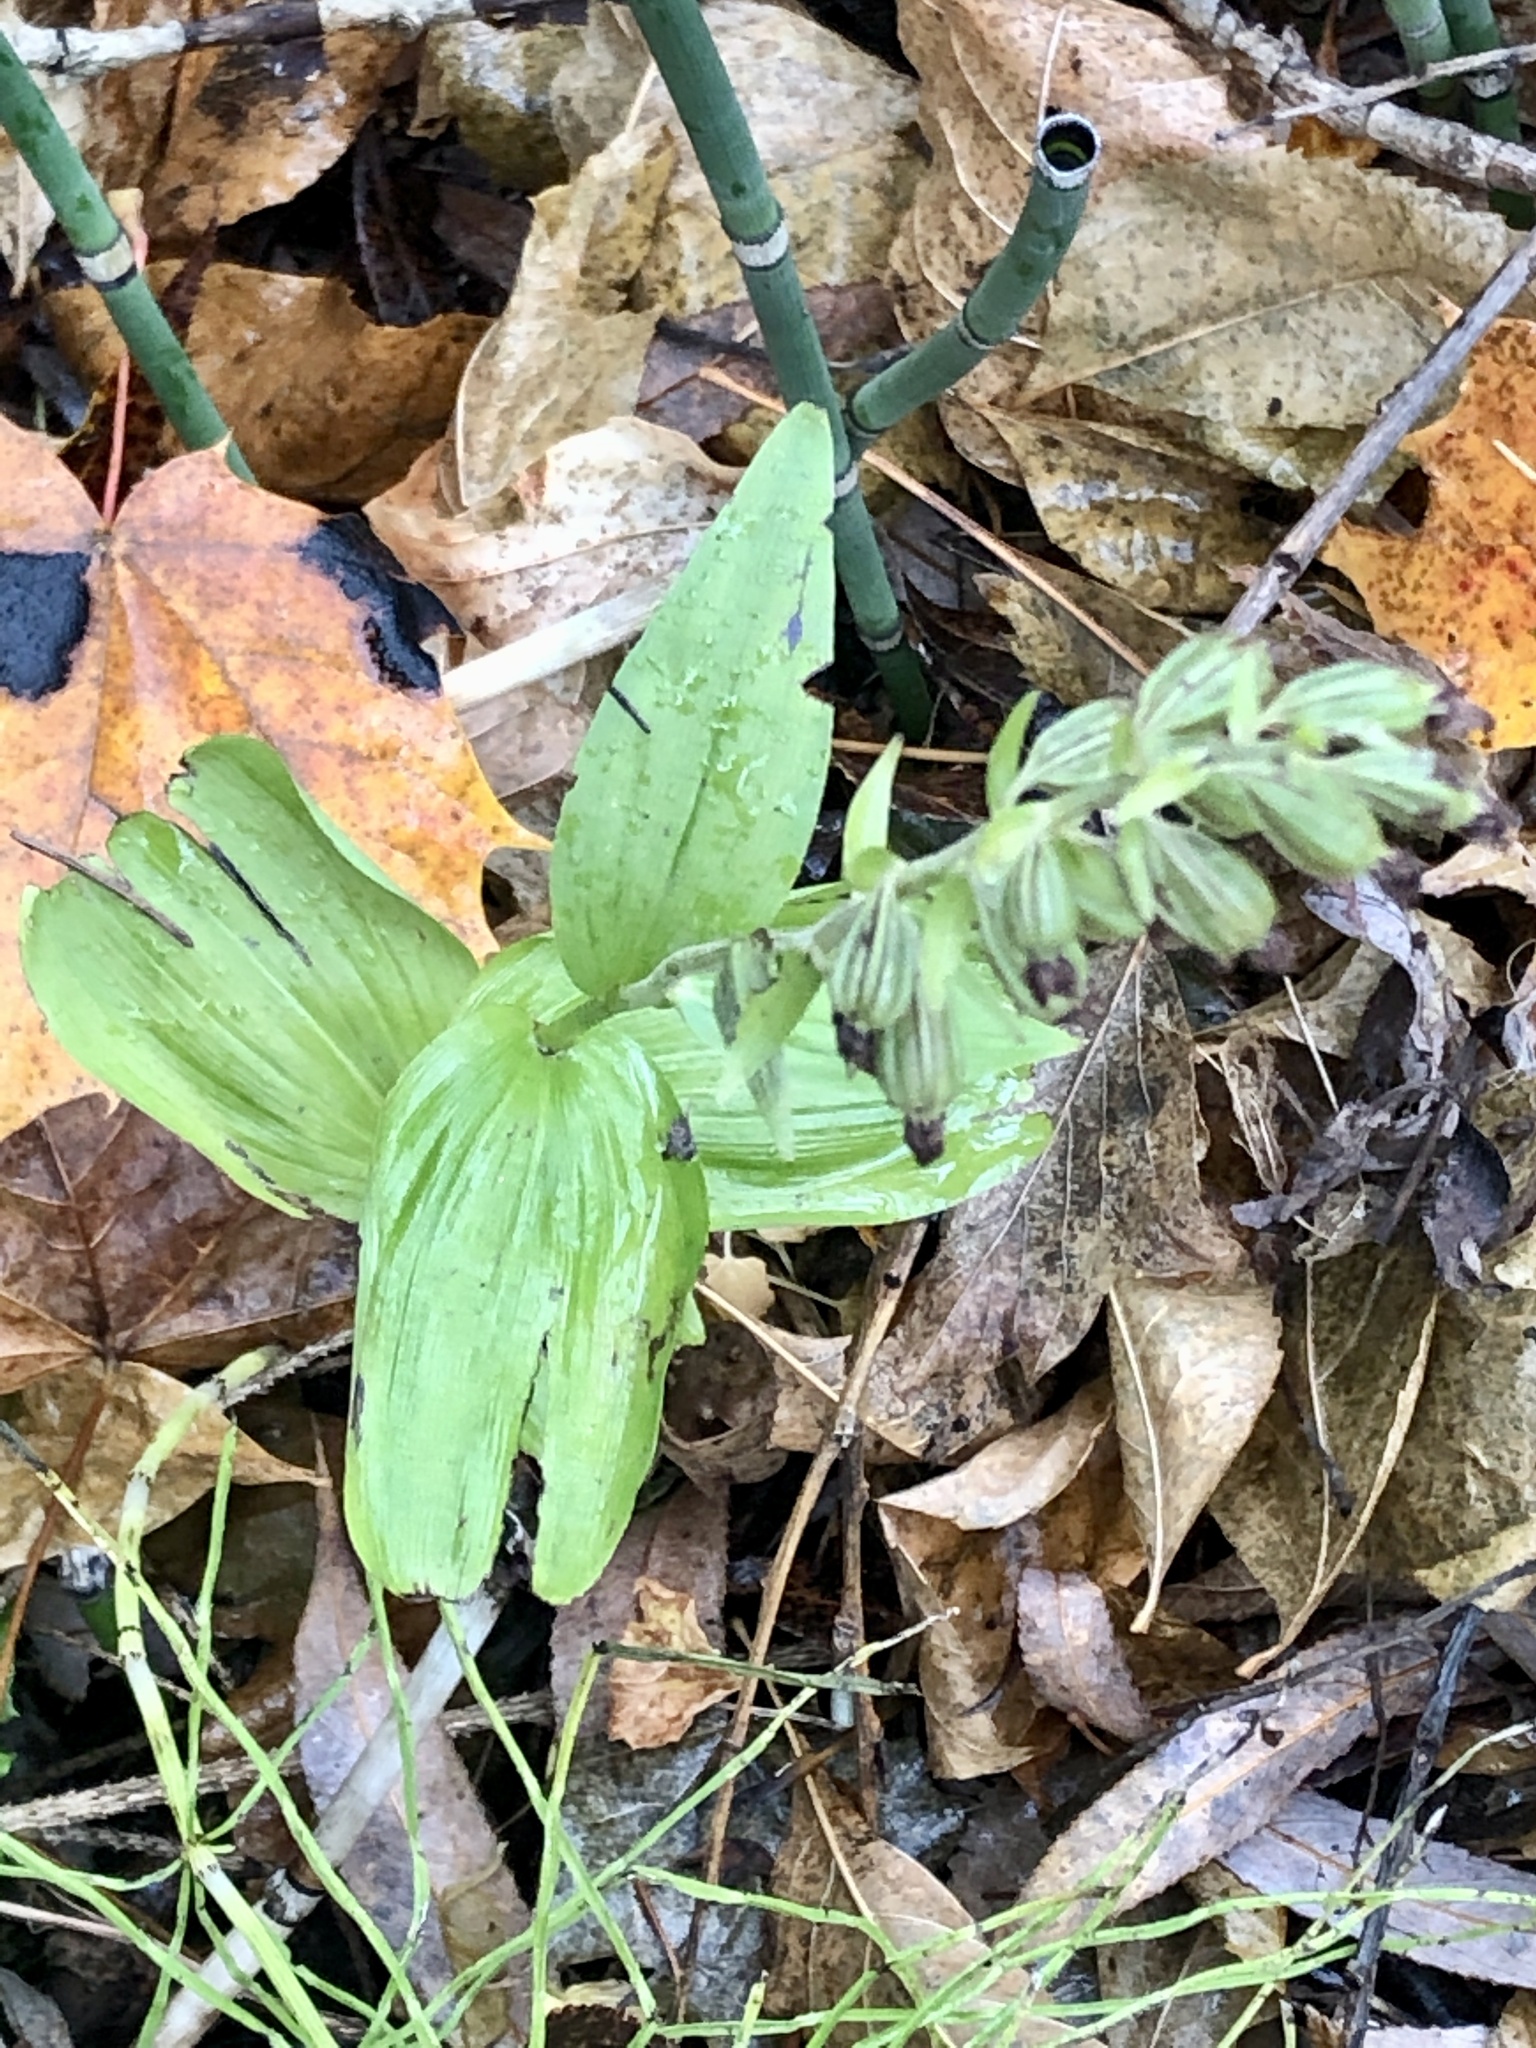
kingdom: Plantae
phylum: Tracheophyta
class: Liliopsida
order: Asparagales
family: Orchidaceae
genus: Epipactis
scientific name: Epipactis helleborine
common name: Broad-leaved helleborine
